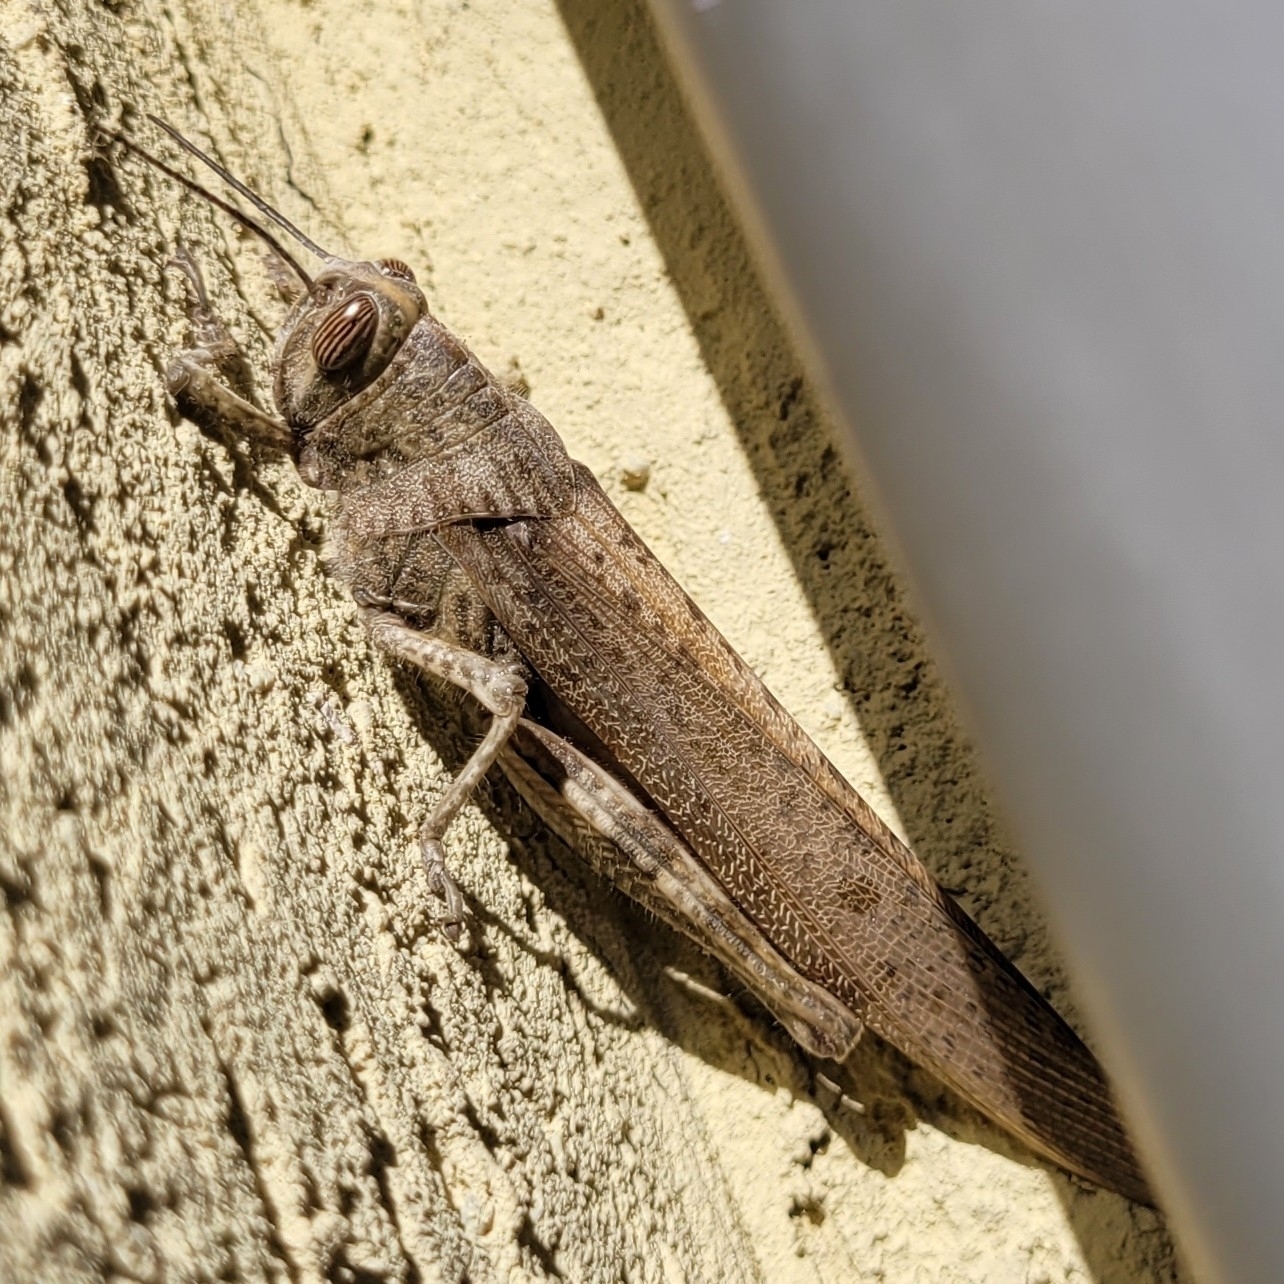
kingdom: Animalia
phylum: Arthropoda
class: Insecta
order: Orthoptera
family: Acrididae
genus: Anacridium
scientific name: Anacridium aegyptium
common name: Egyptian grasshopper
